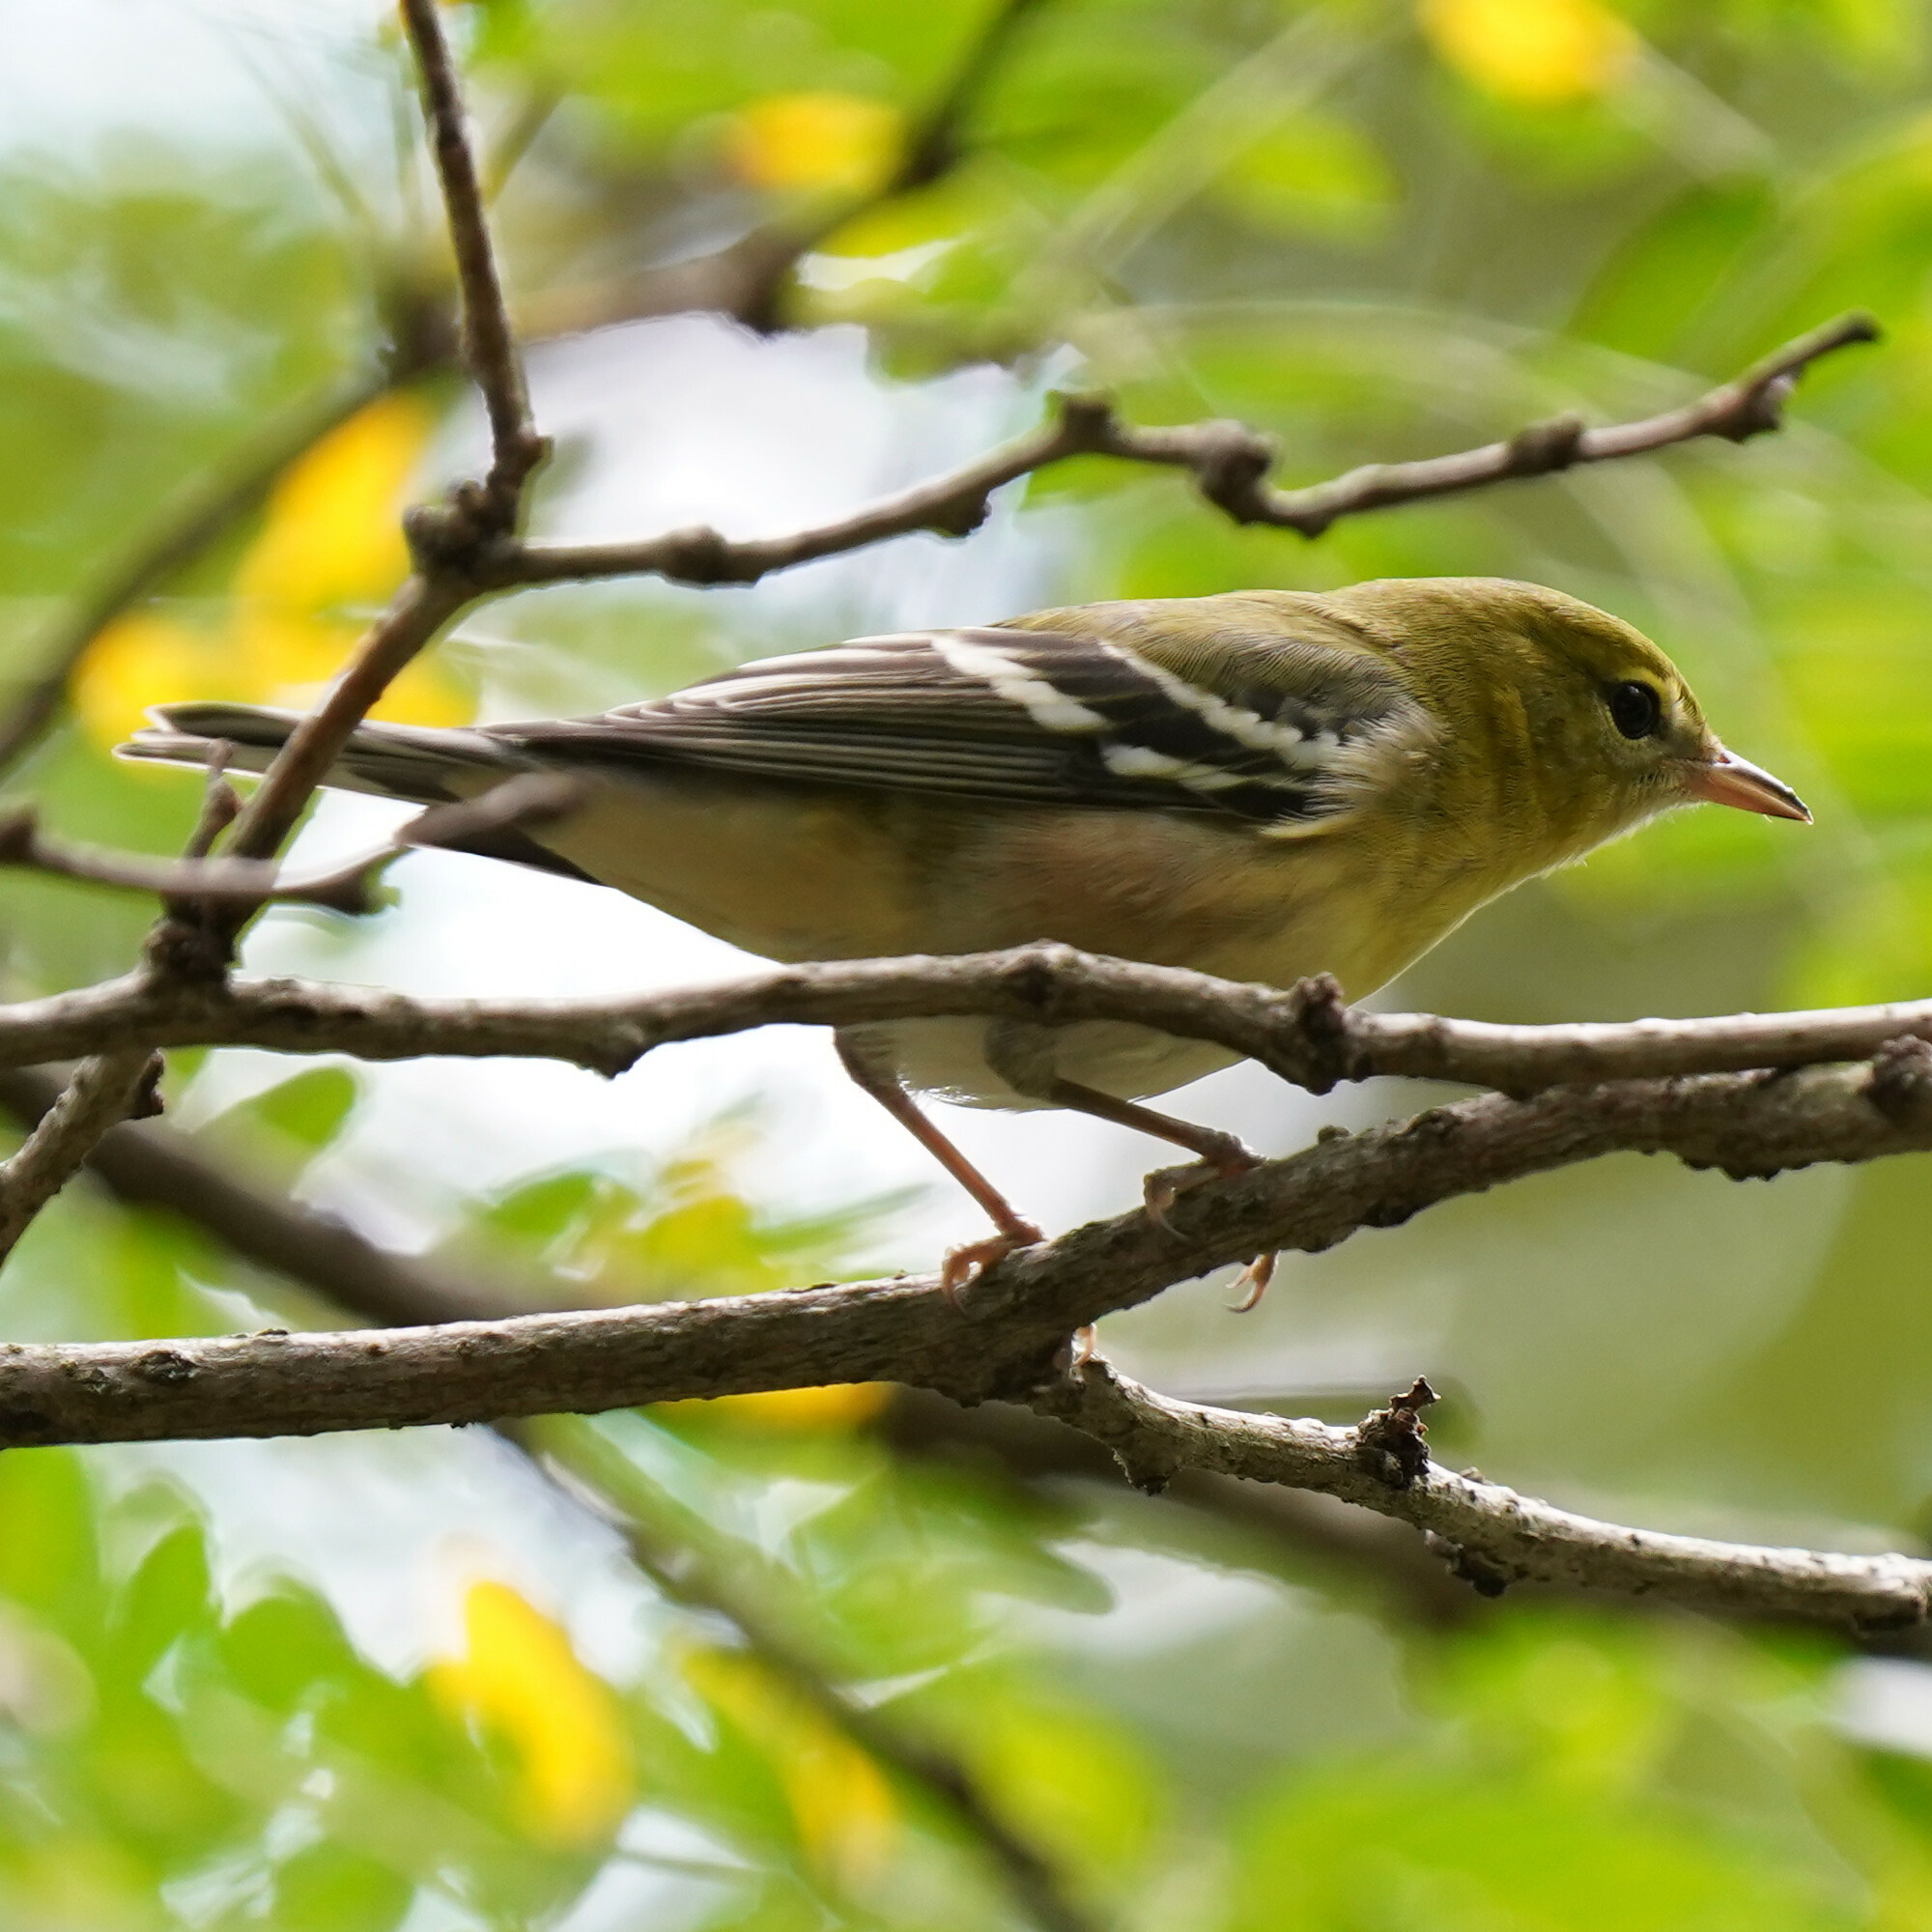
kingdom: Animalia
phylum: Chordata
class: Aves
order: Passeriformes
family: Parulidae
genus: Setophaga
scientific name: Setophaga castanea
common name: Bay-breasted warbler
